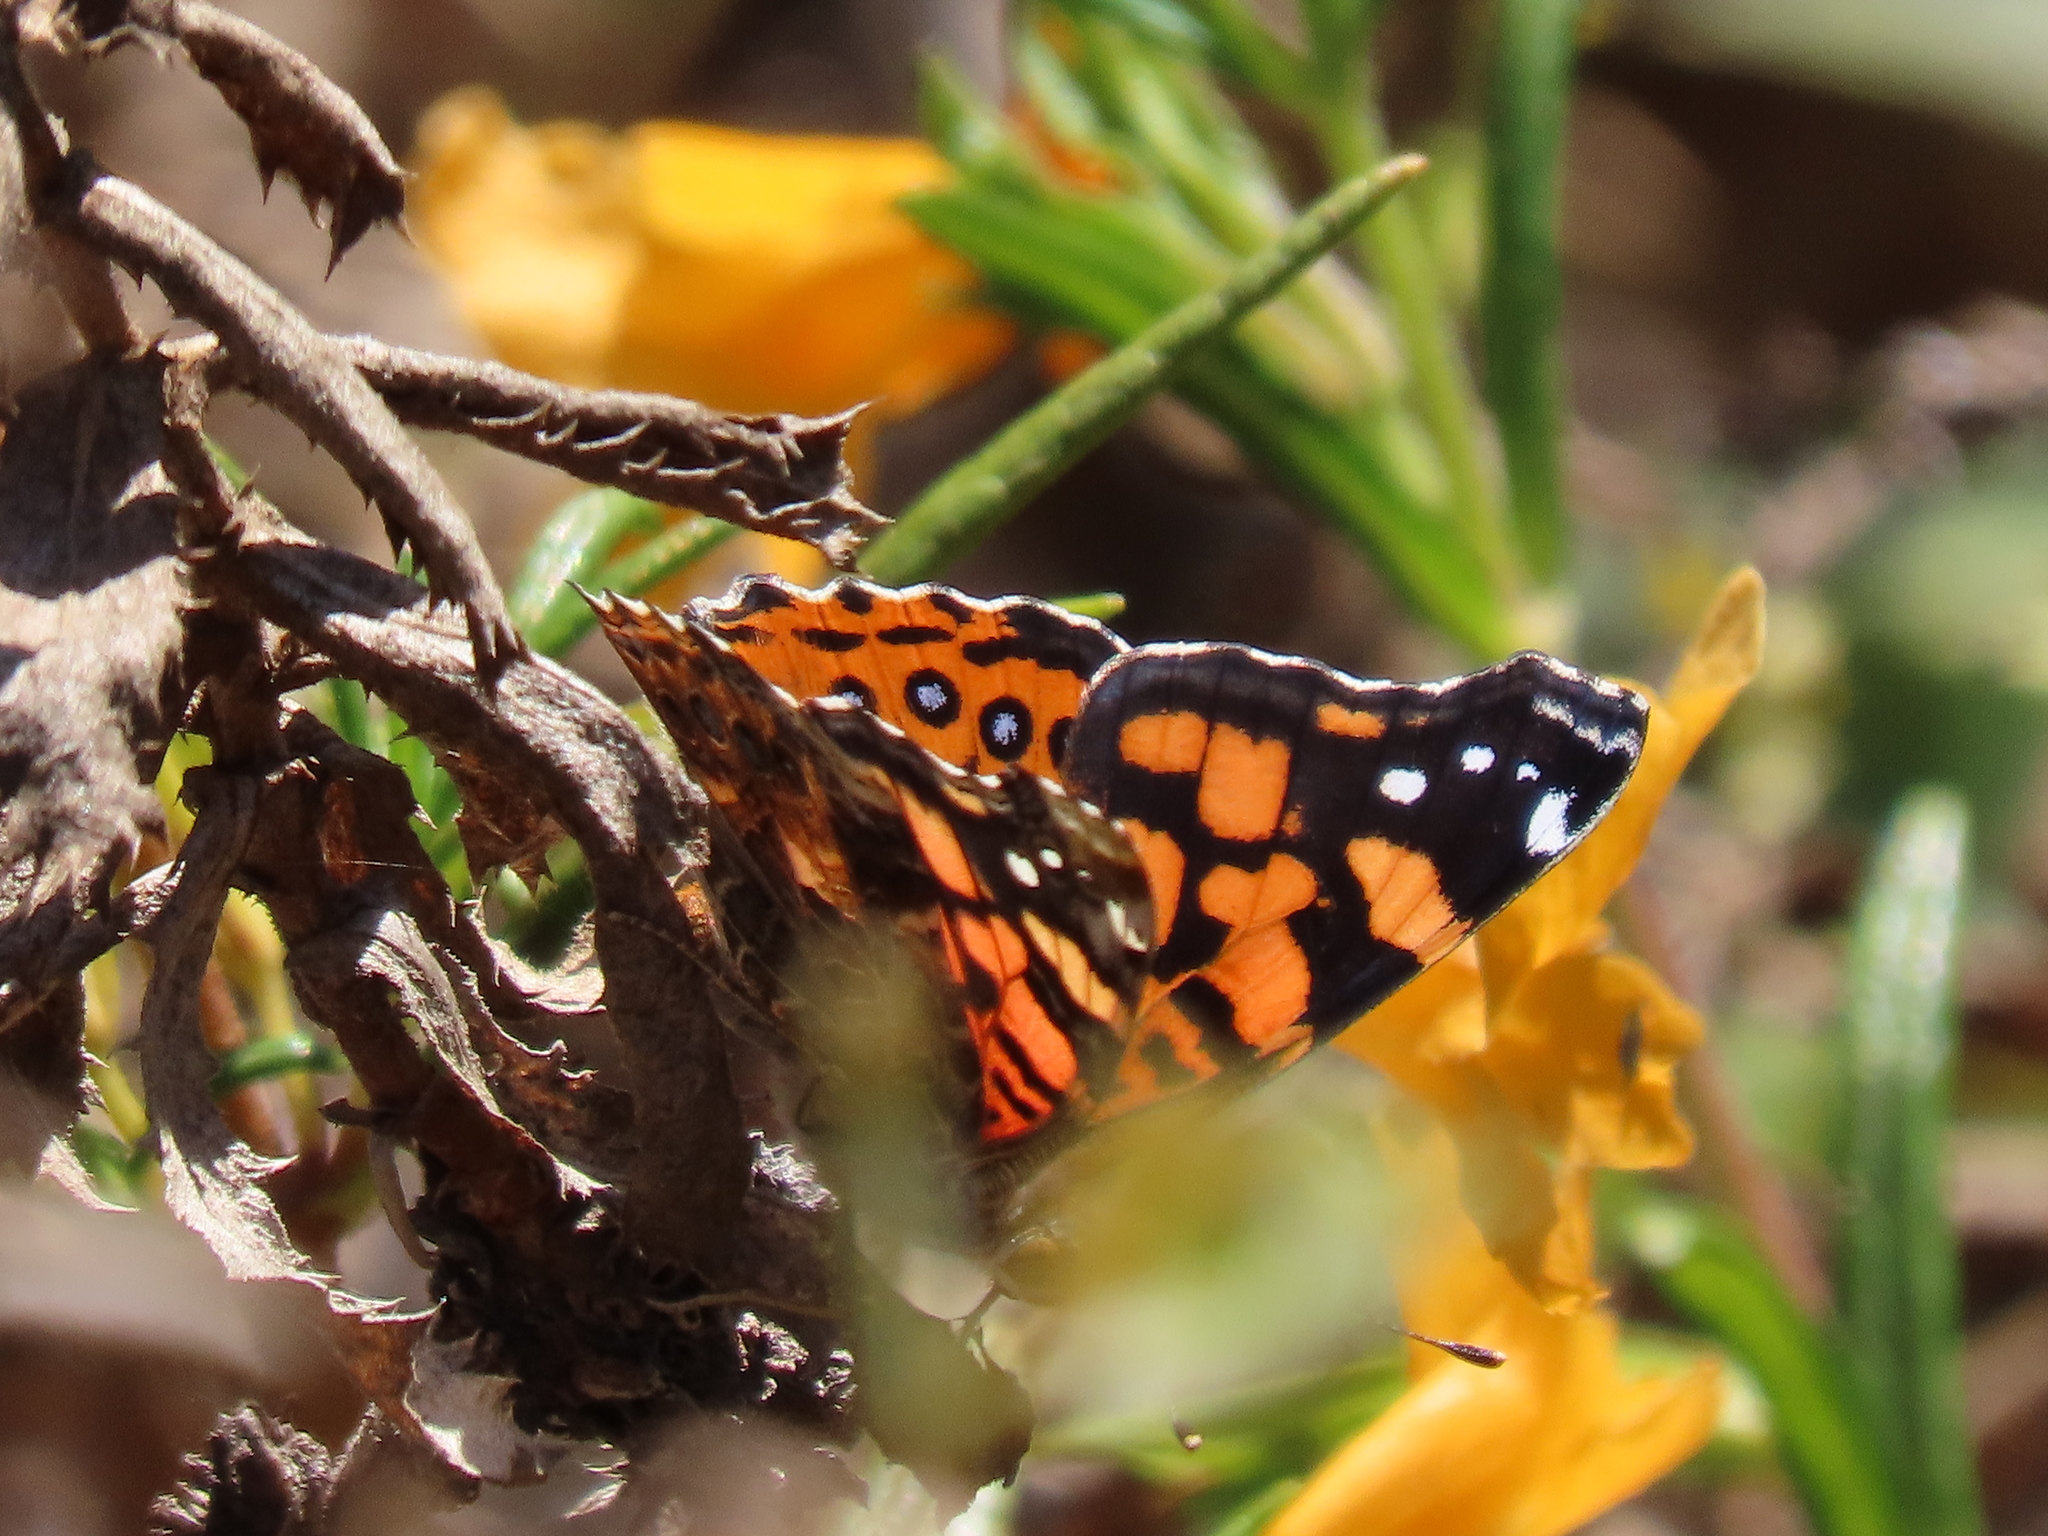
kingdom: Animalia
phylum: Arthropoda
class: Insecta
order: Lepidoptera
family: Nymphalidae
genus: Vanessa
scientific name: Vanessa annabella
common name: West coast lady
